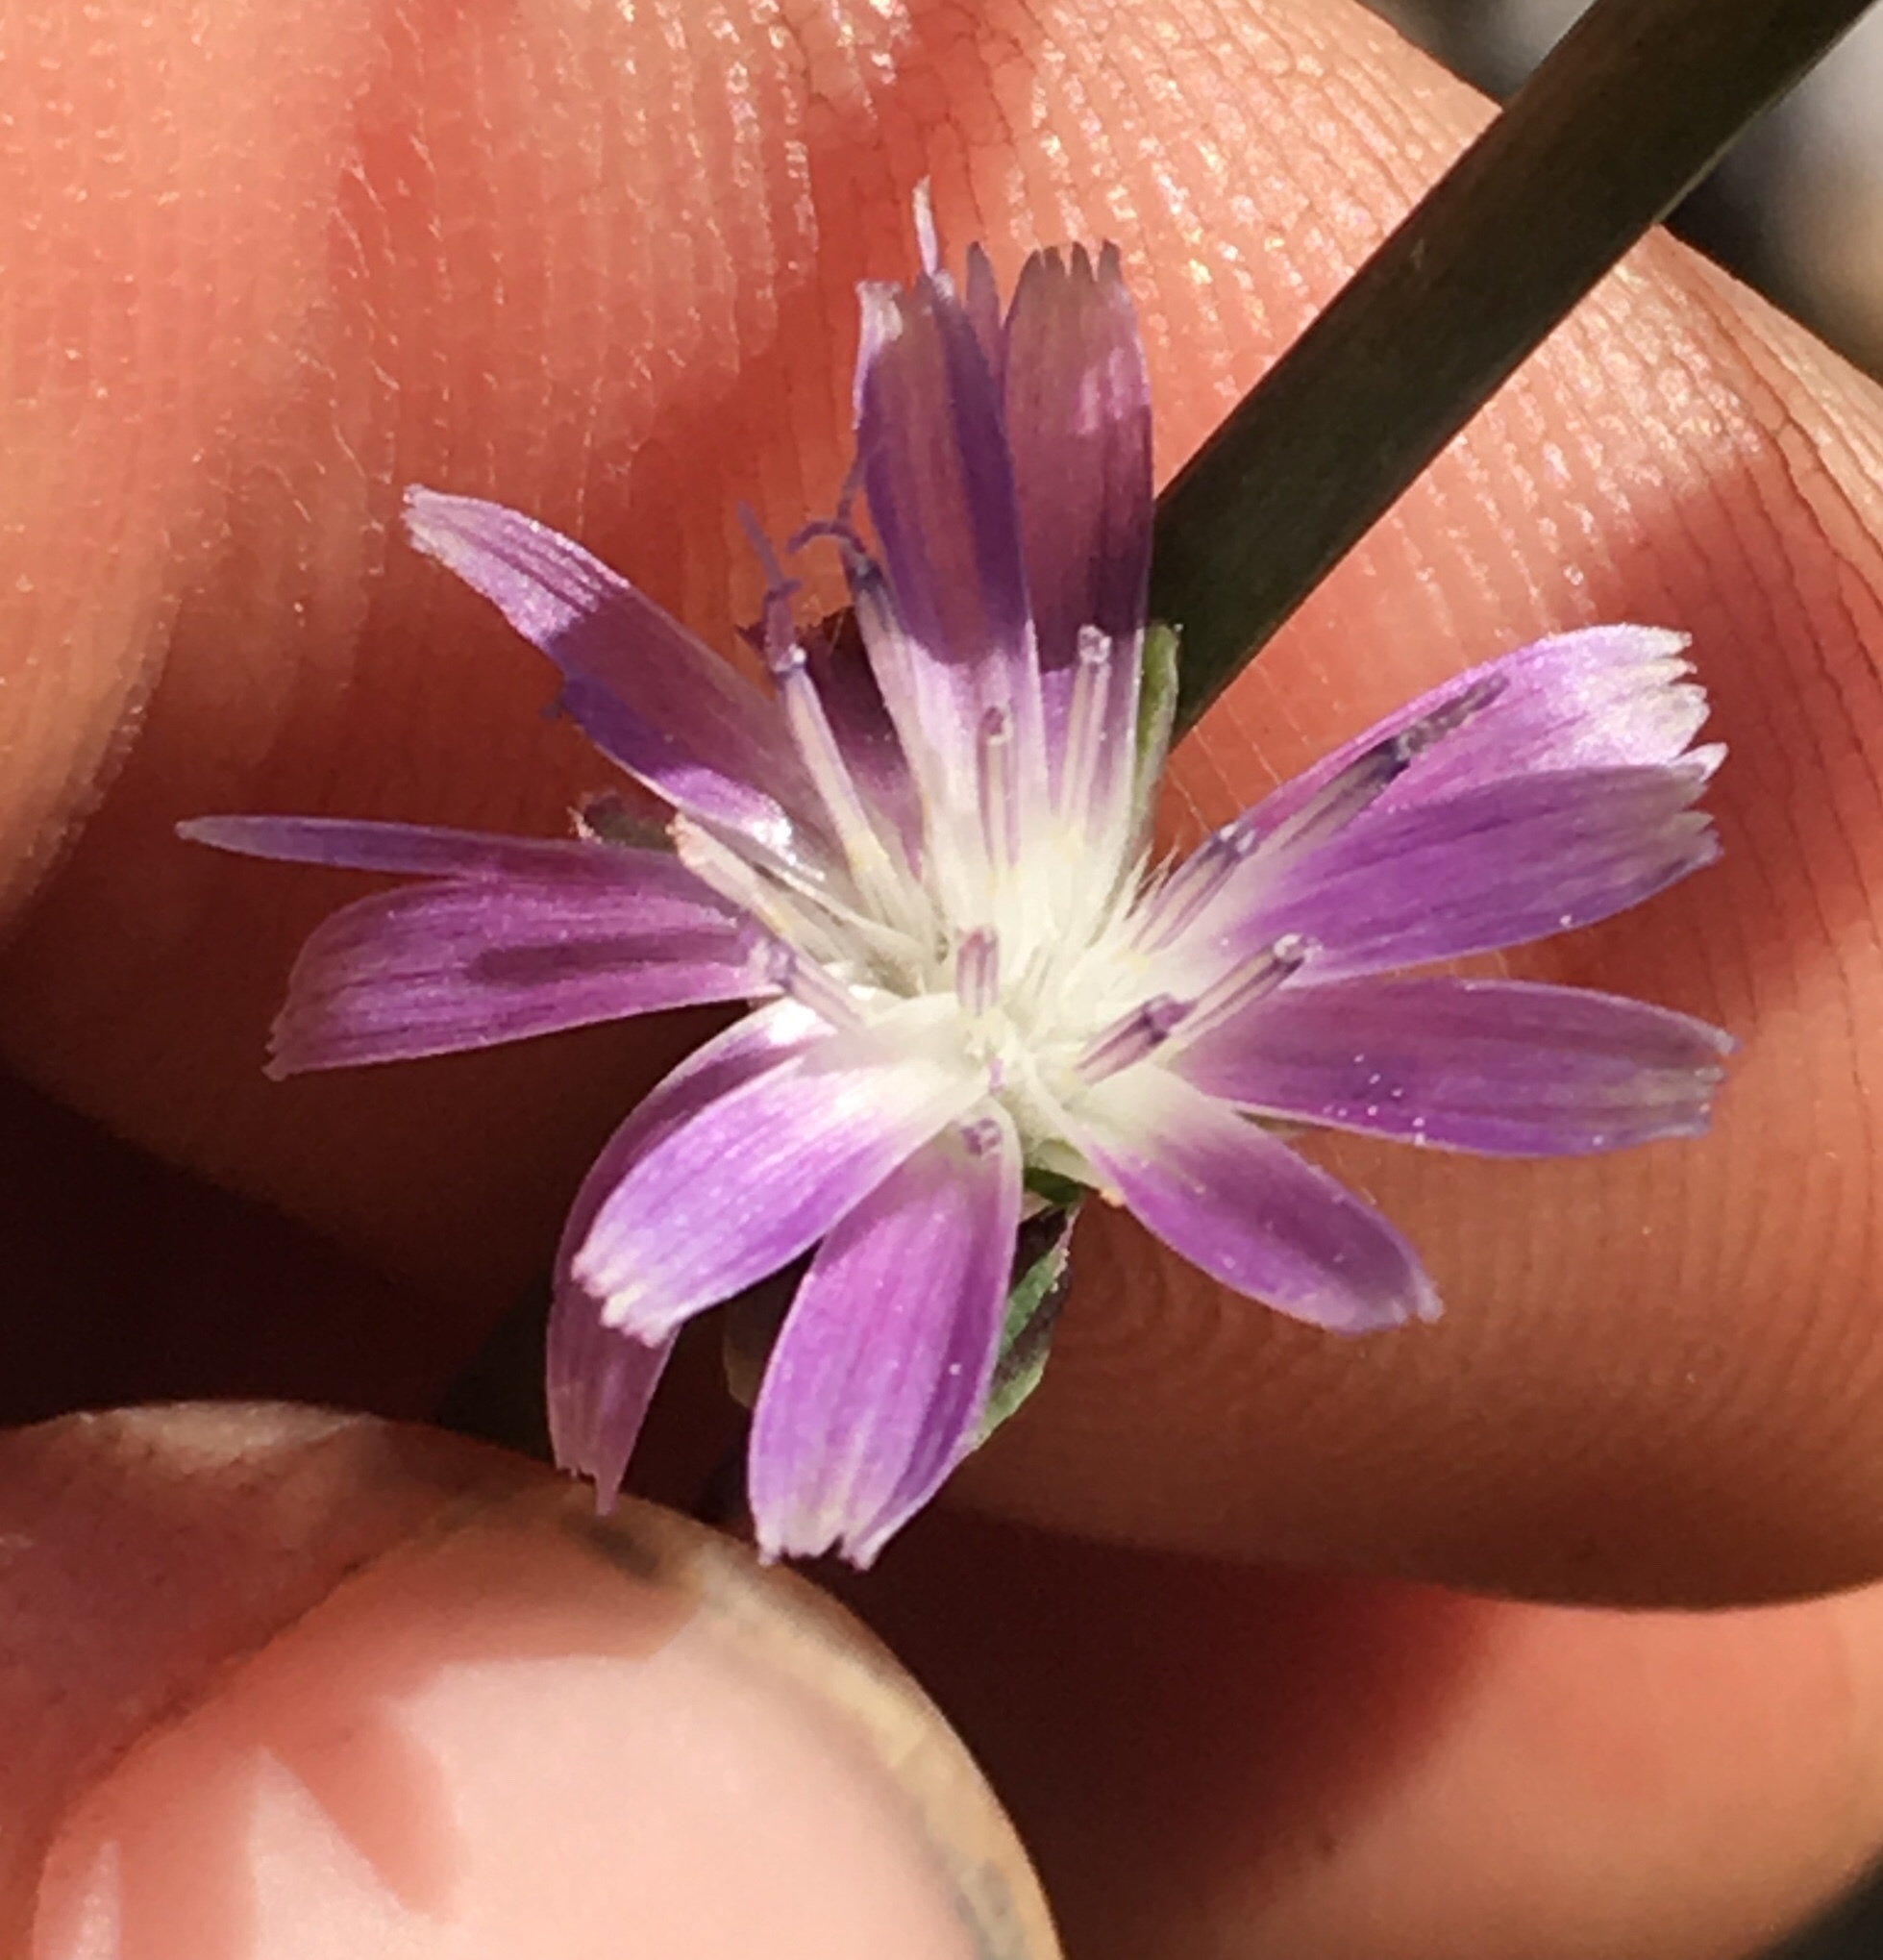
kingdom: Plantae
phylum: Tracheophyta
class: Magnoliopsida
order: Asterales
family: Asteraceae
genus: Lactuca
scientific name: Lactuca graminifolia
